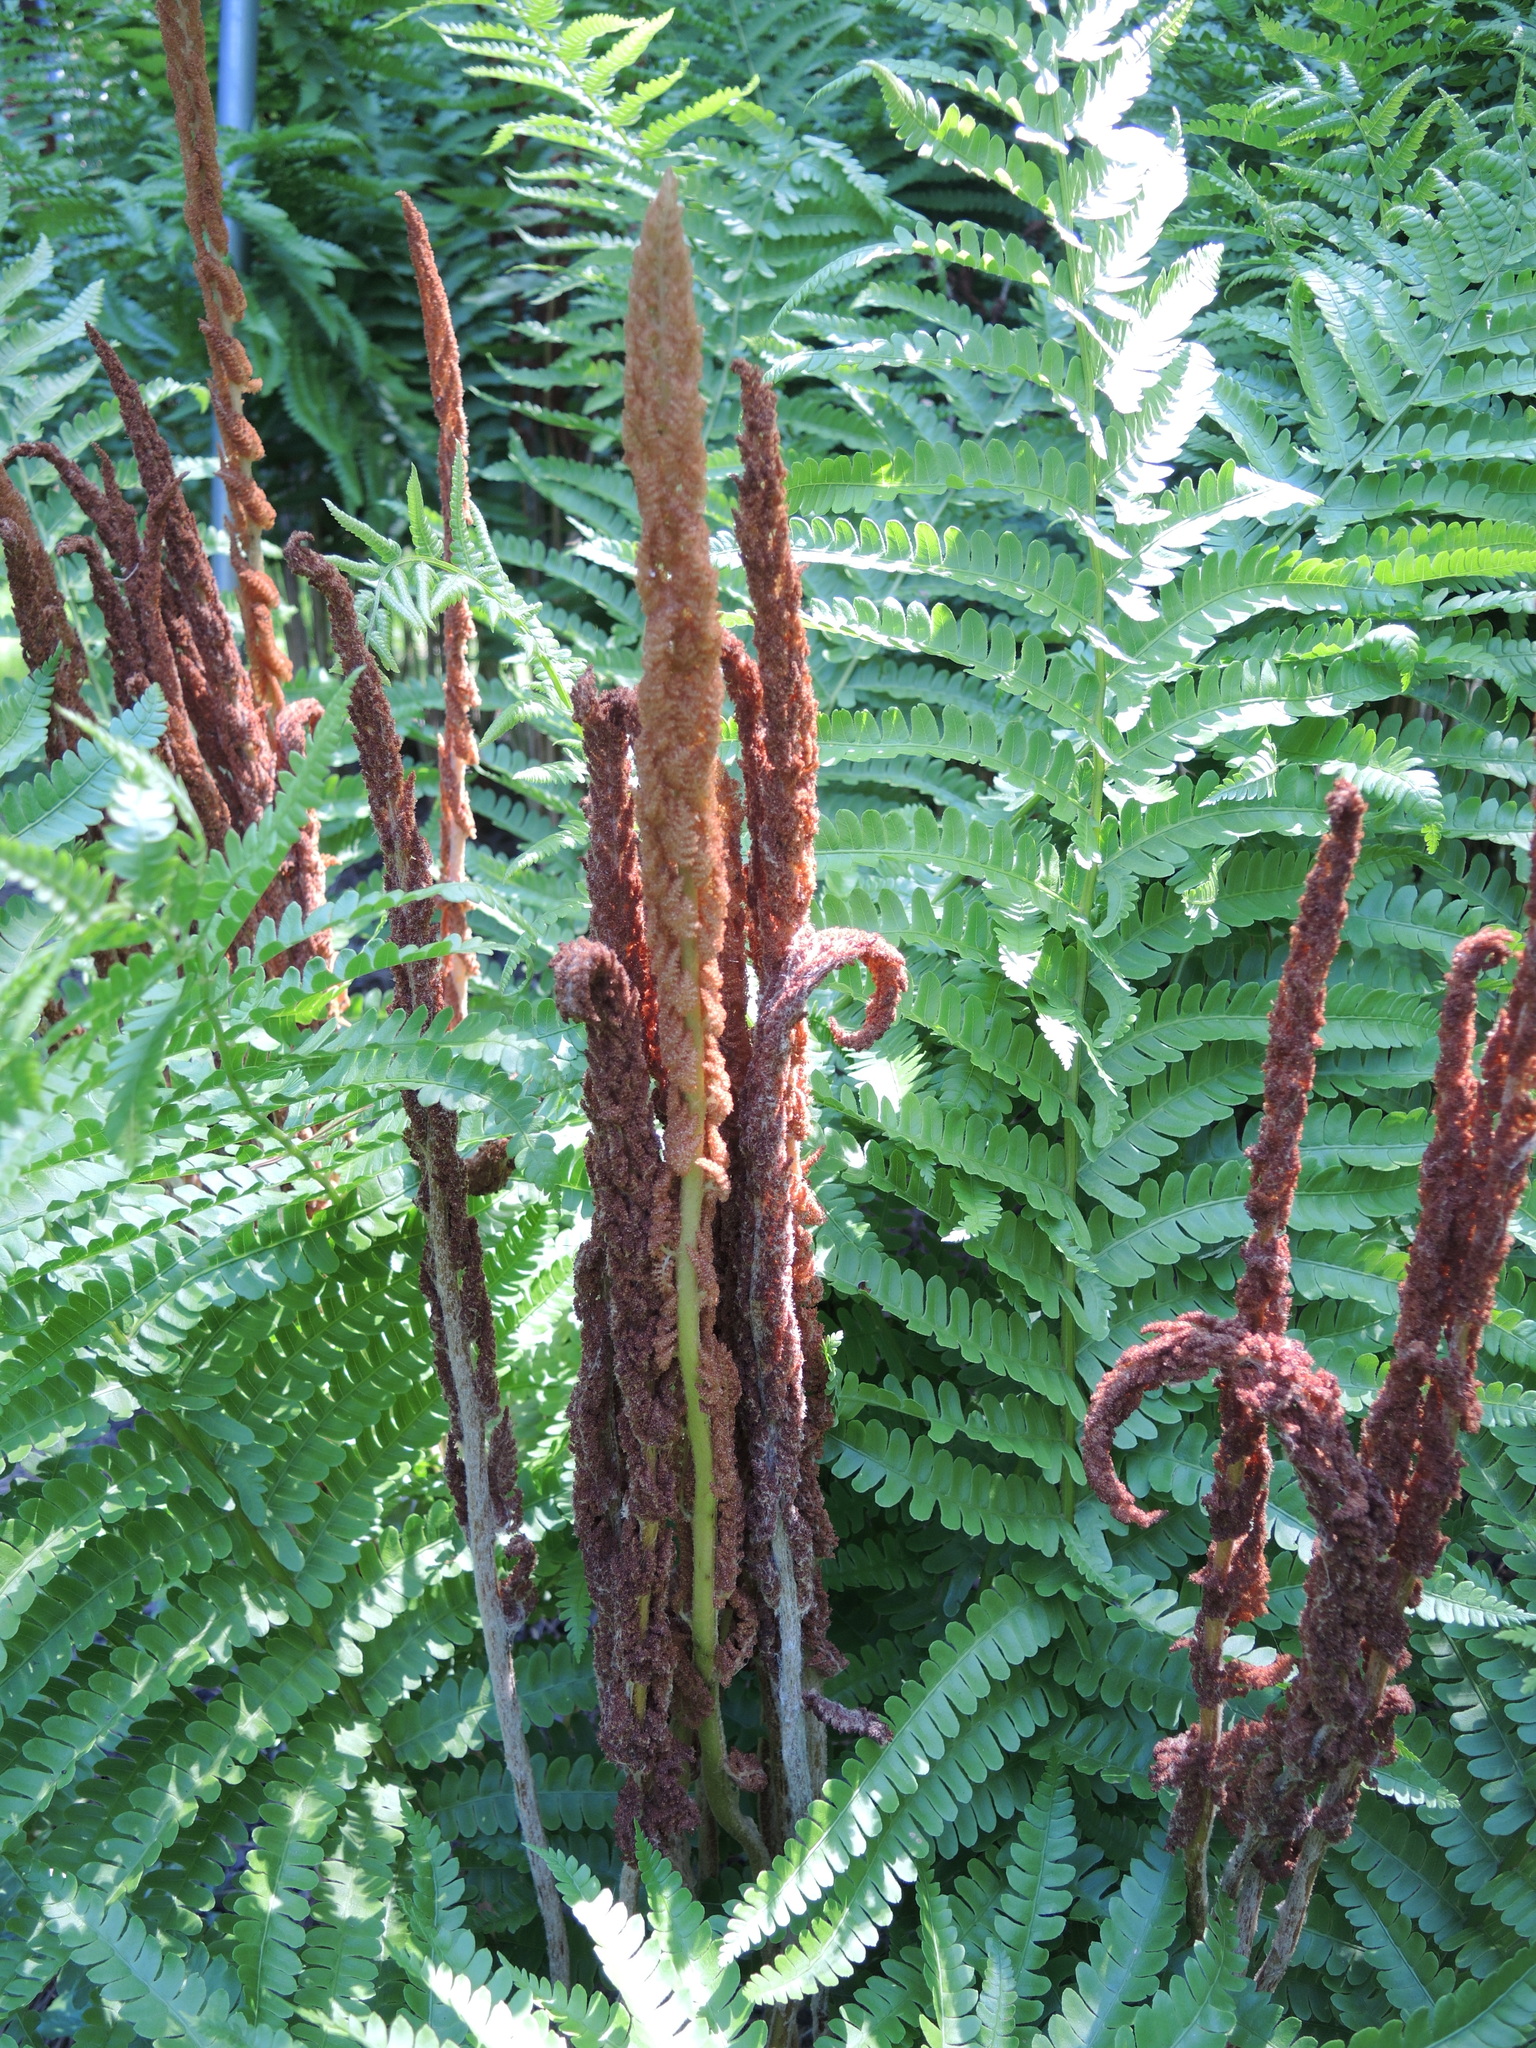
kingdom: Plantae
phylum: Tracheophyta
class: Polypodiopsida
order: Osmundales
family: Osmundaceae
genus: Osmundastrum
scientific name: Osmundastrum cinnamomeum
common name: Cinnamon fern
